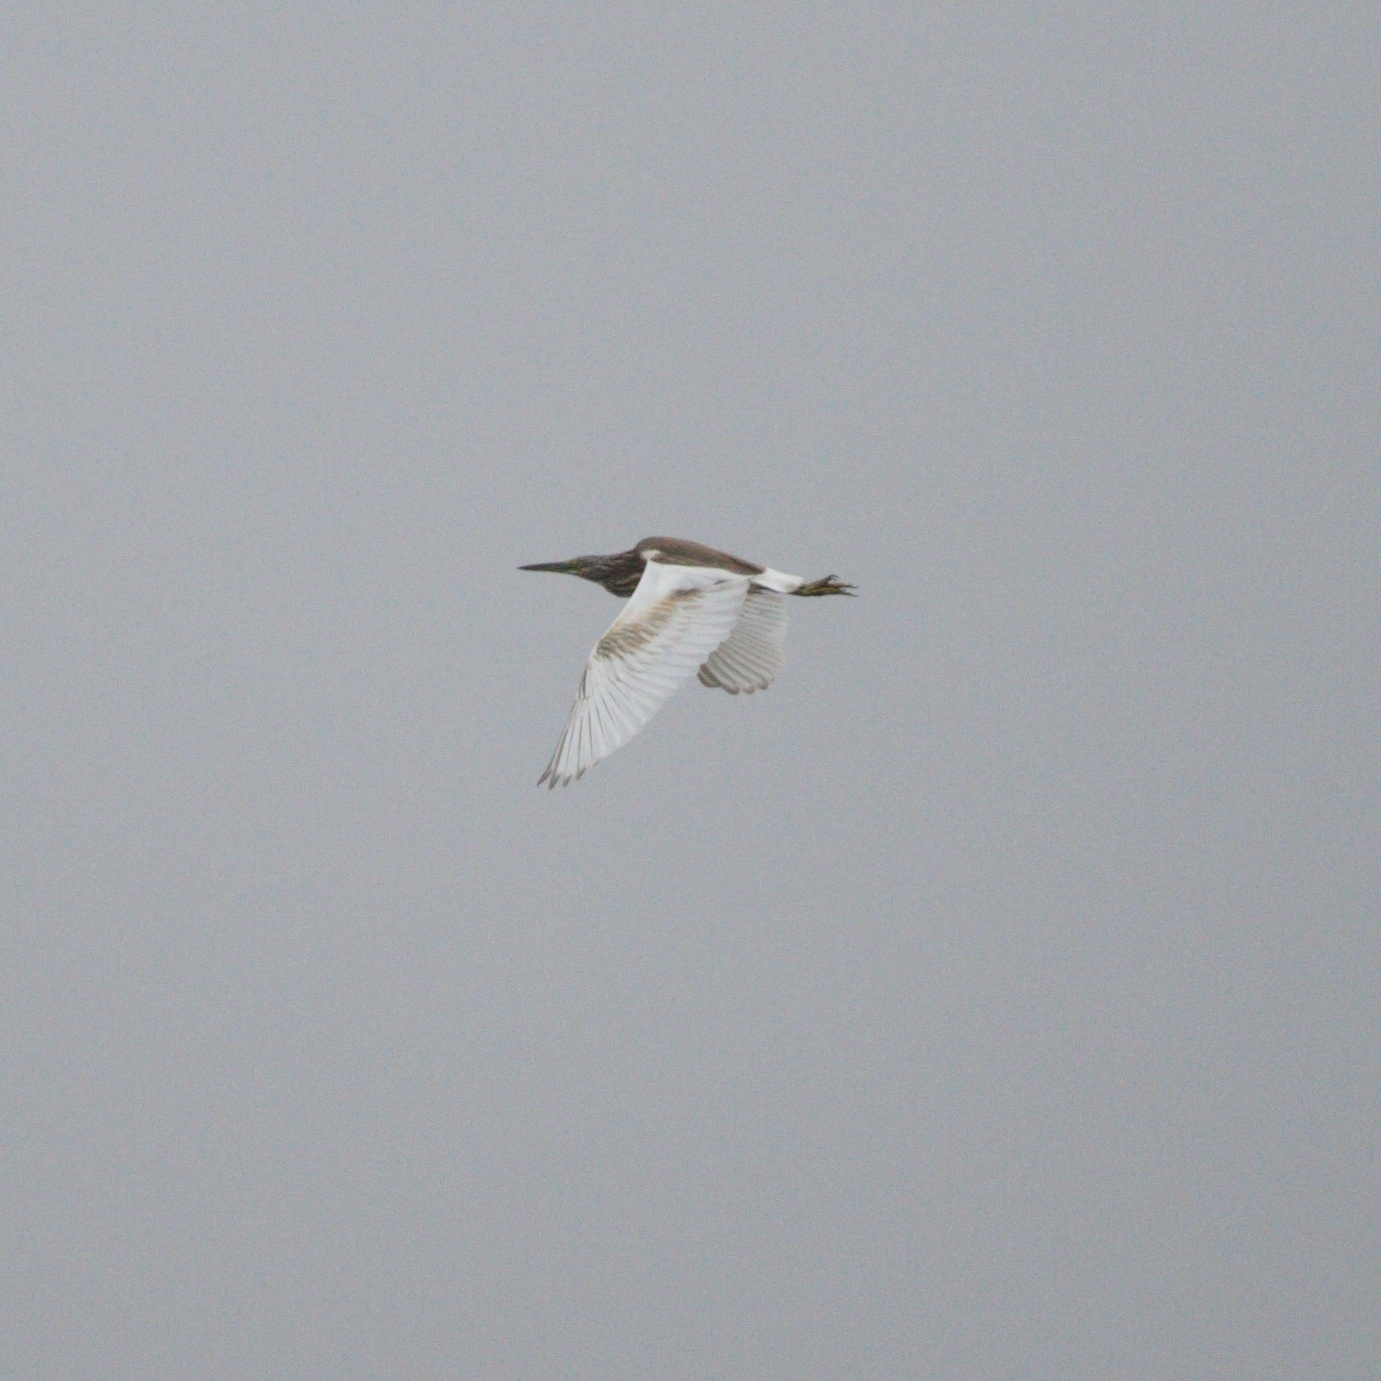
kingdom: Animalia
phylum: Chordata
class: Aves
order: Pelecaniformes
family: Ardeidae
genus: Ardeola
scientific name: Ardeola ralloides
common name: Squacco heron
